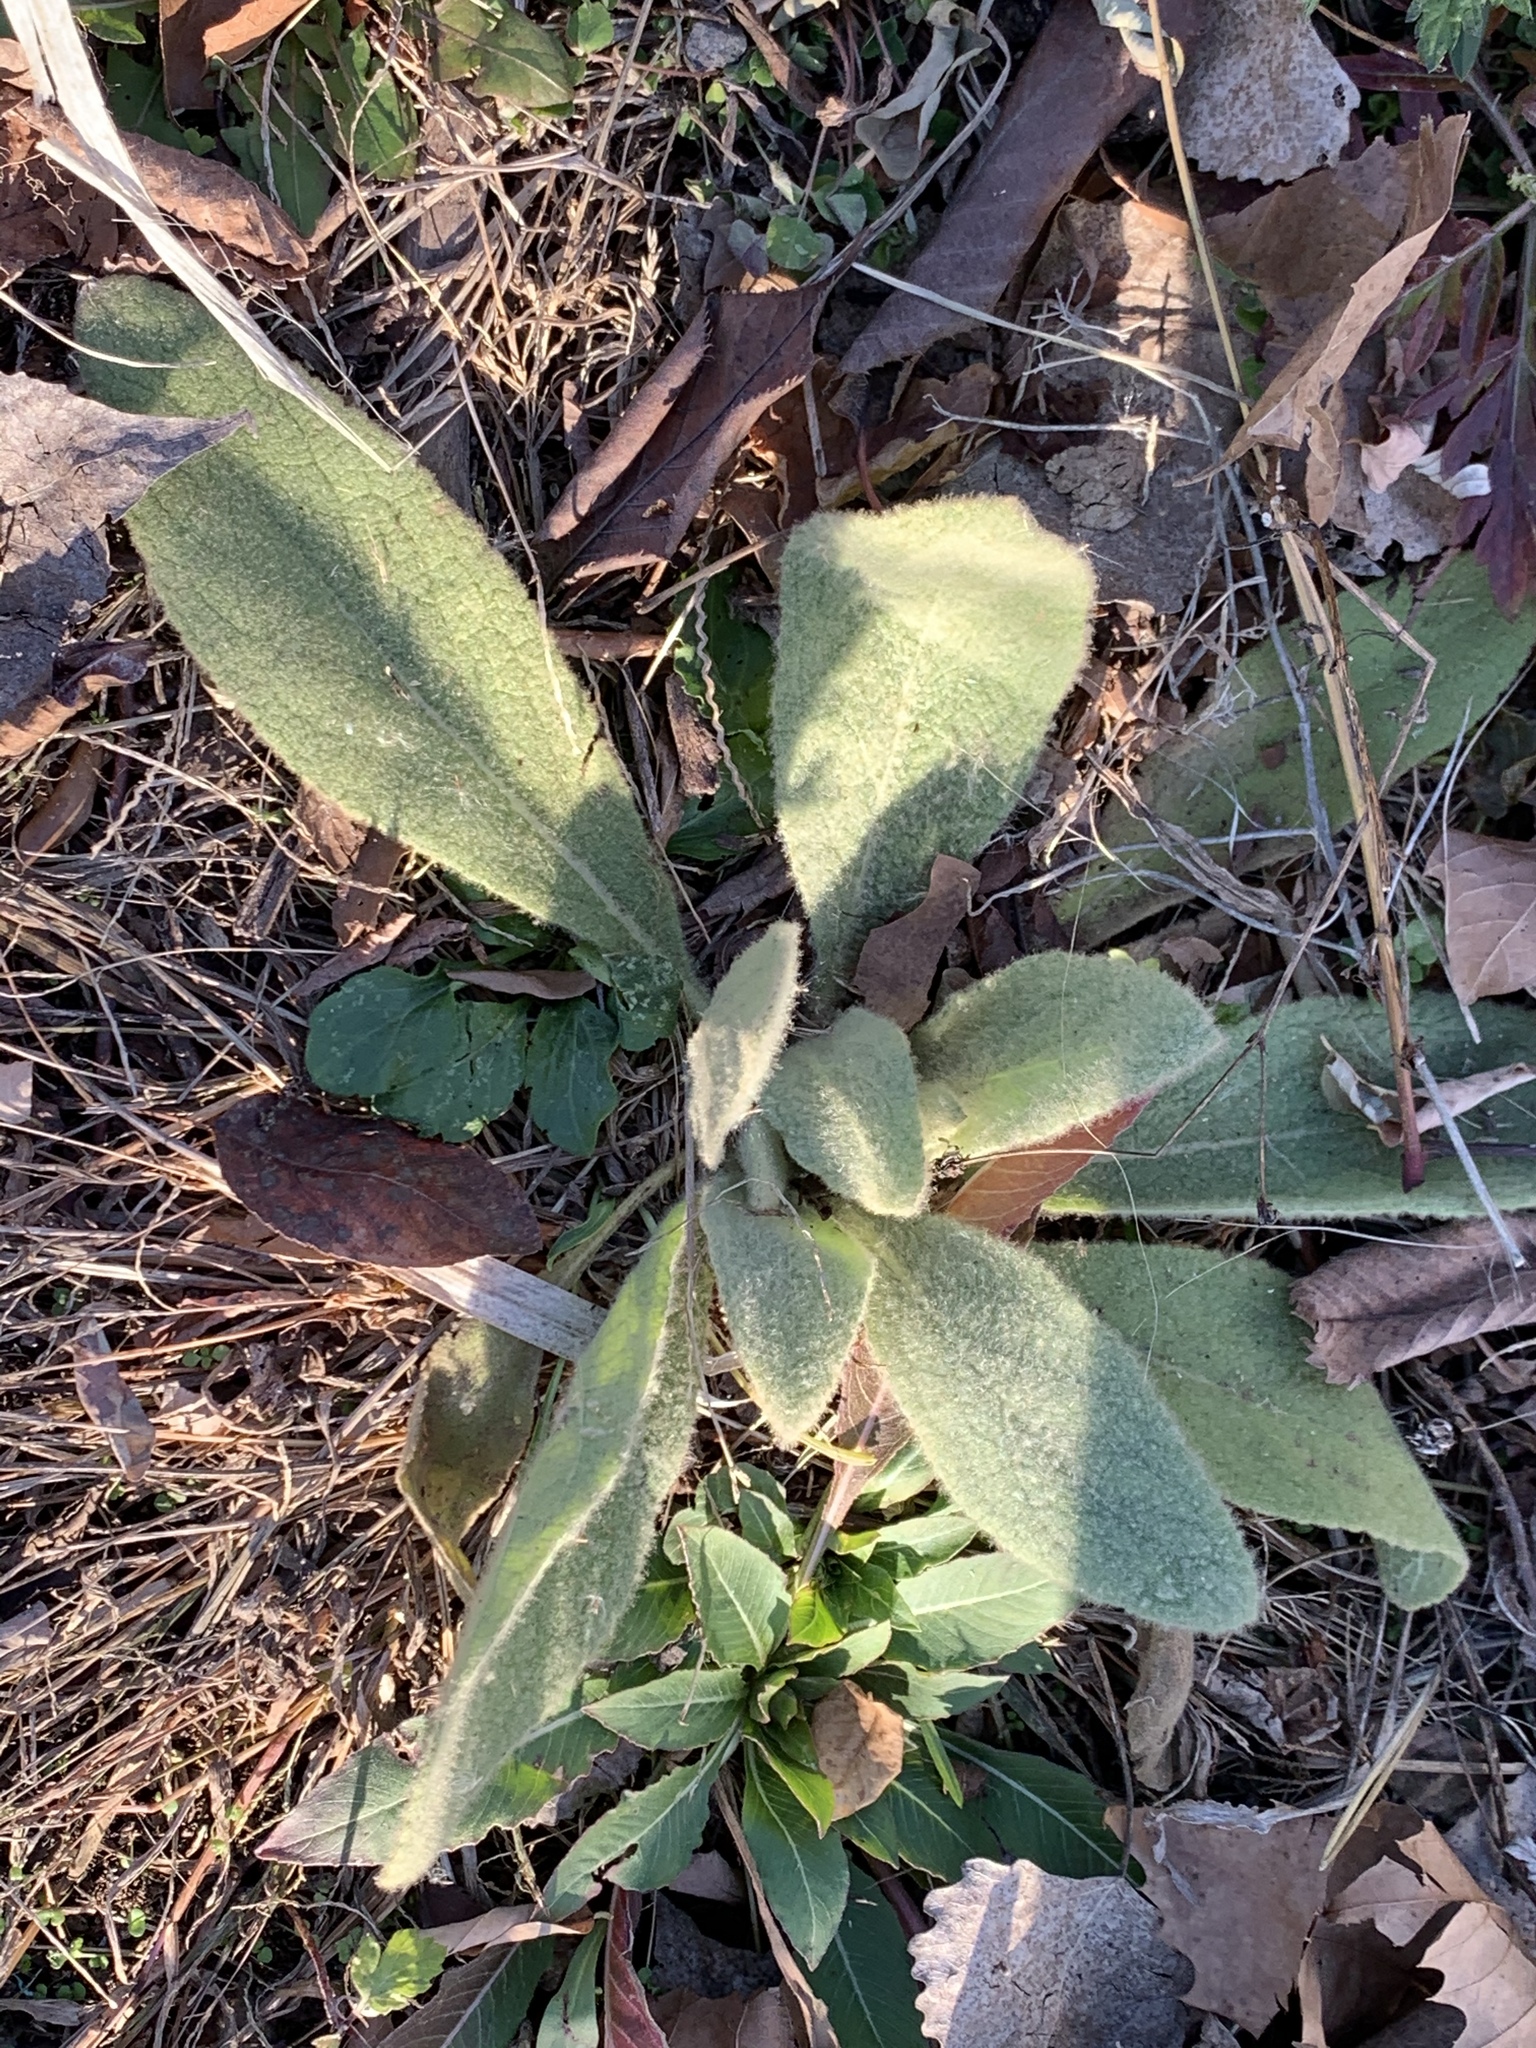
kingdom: Plantae
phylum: Tracheophyta
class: Magnoliopsida
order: Lamiales
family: Scrophulariaceae
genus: Verbascum
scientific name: Verbascum thapsus
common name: Common mullein
